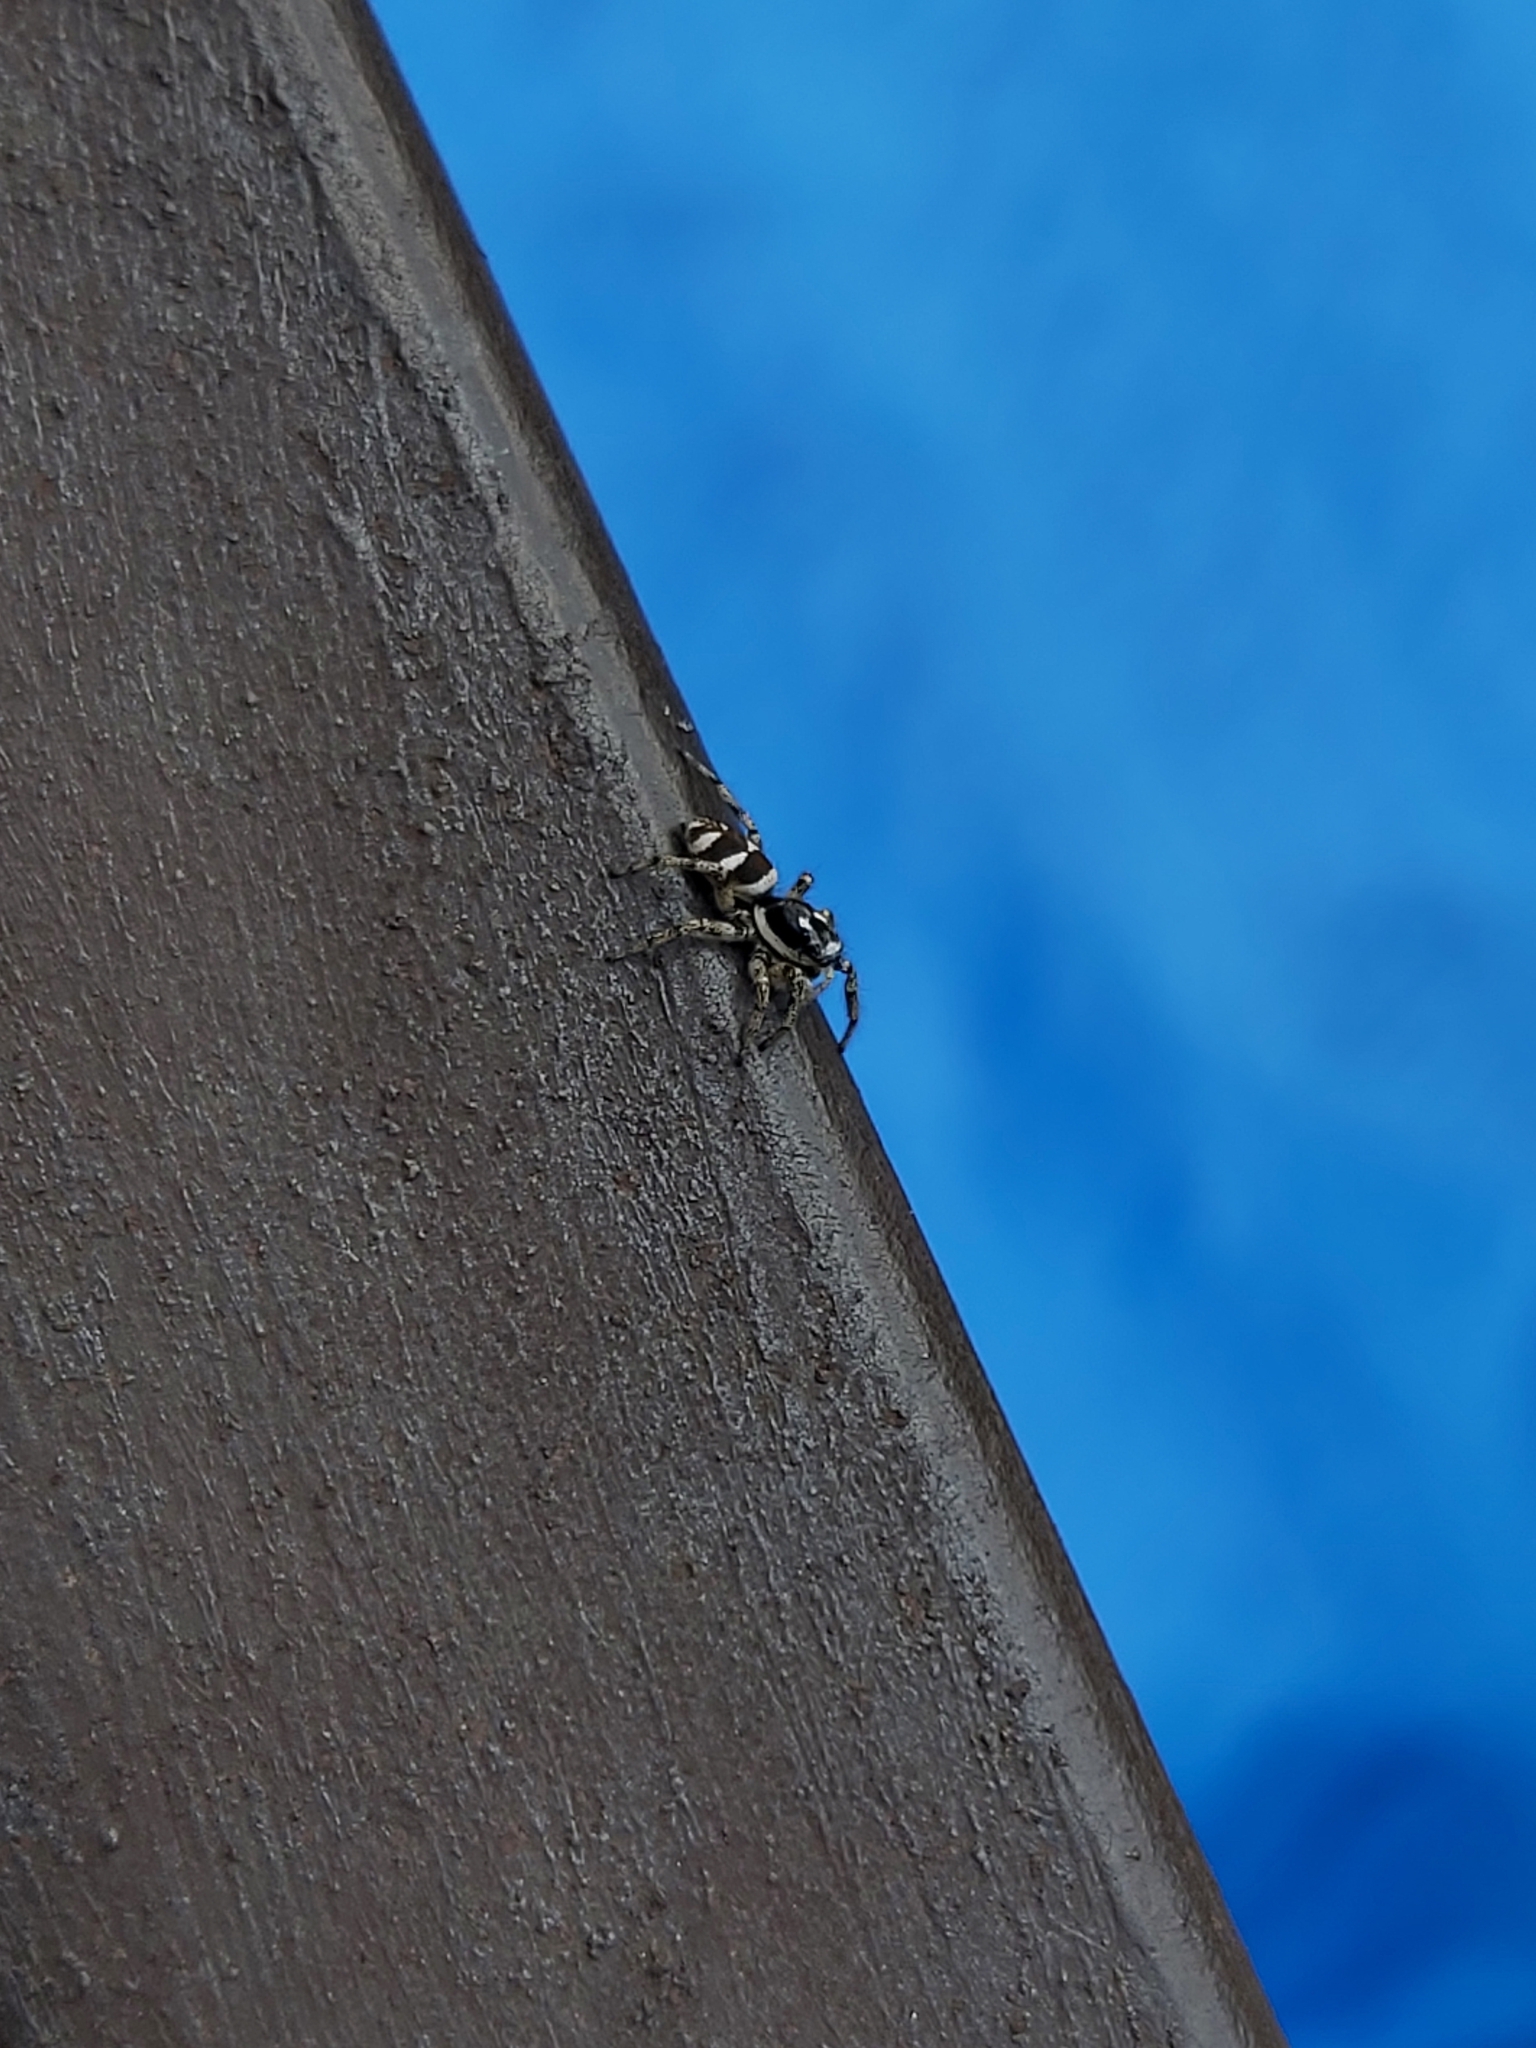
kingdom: Animalia
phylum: Arthropoda
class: Arachnida
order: Araneae
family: Salticidae
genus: Salticus
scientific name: Salticus scenicus
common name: Zebra jumper
